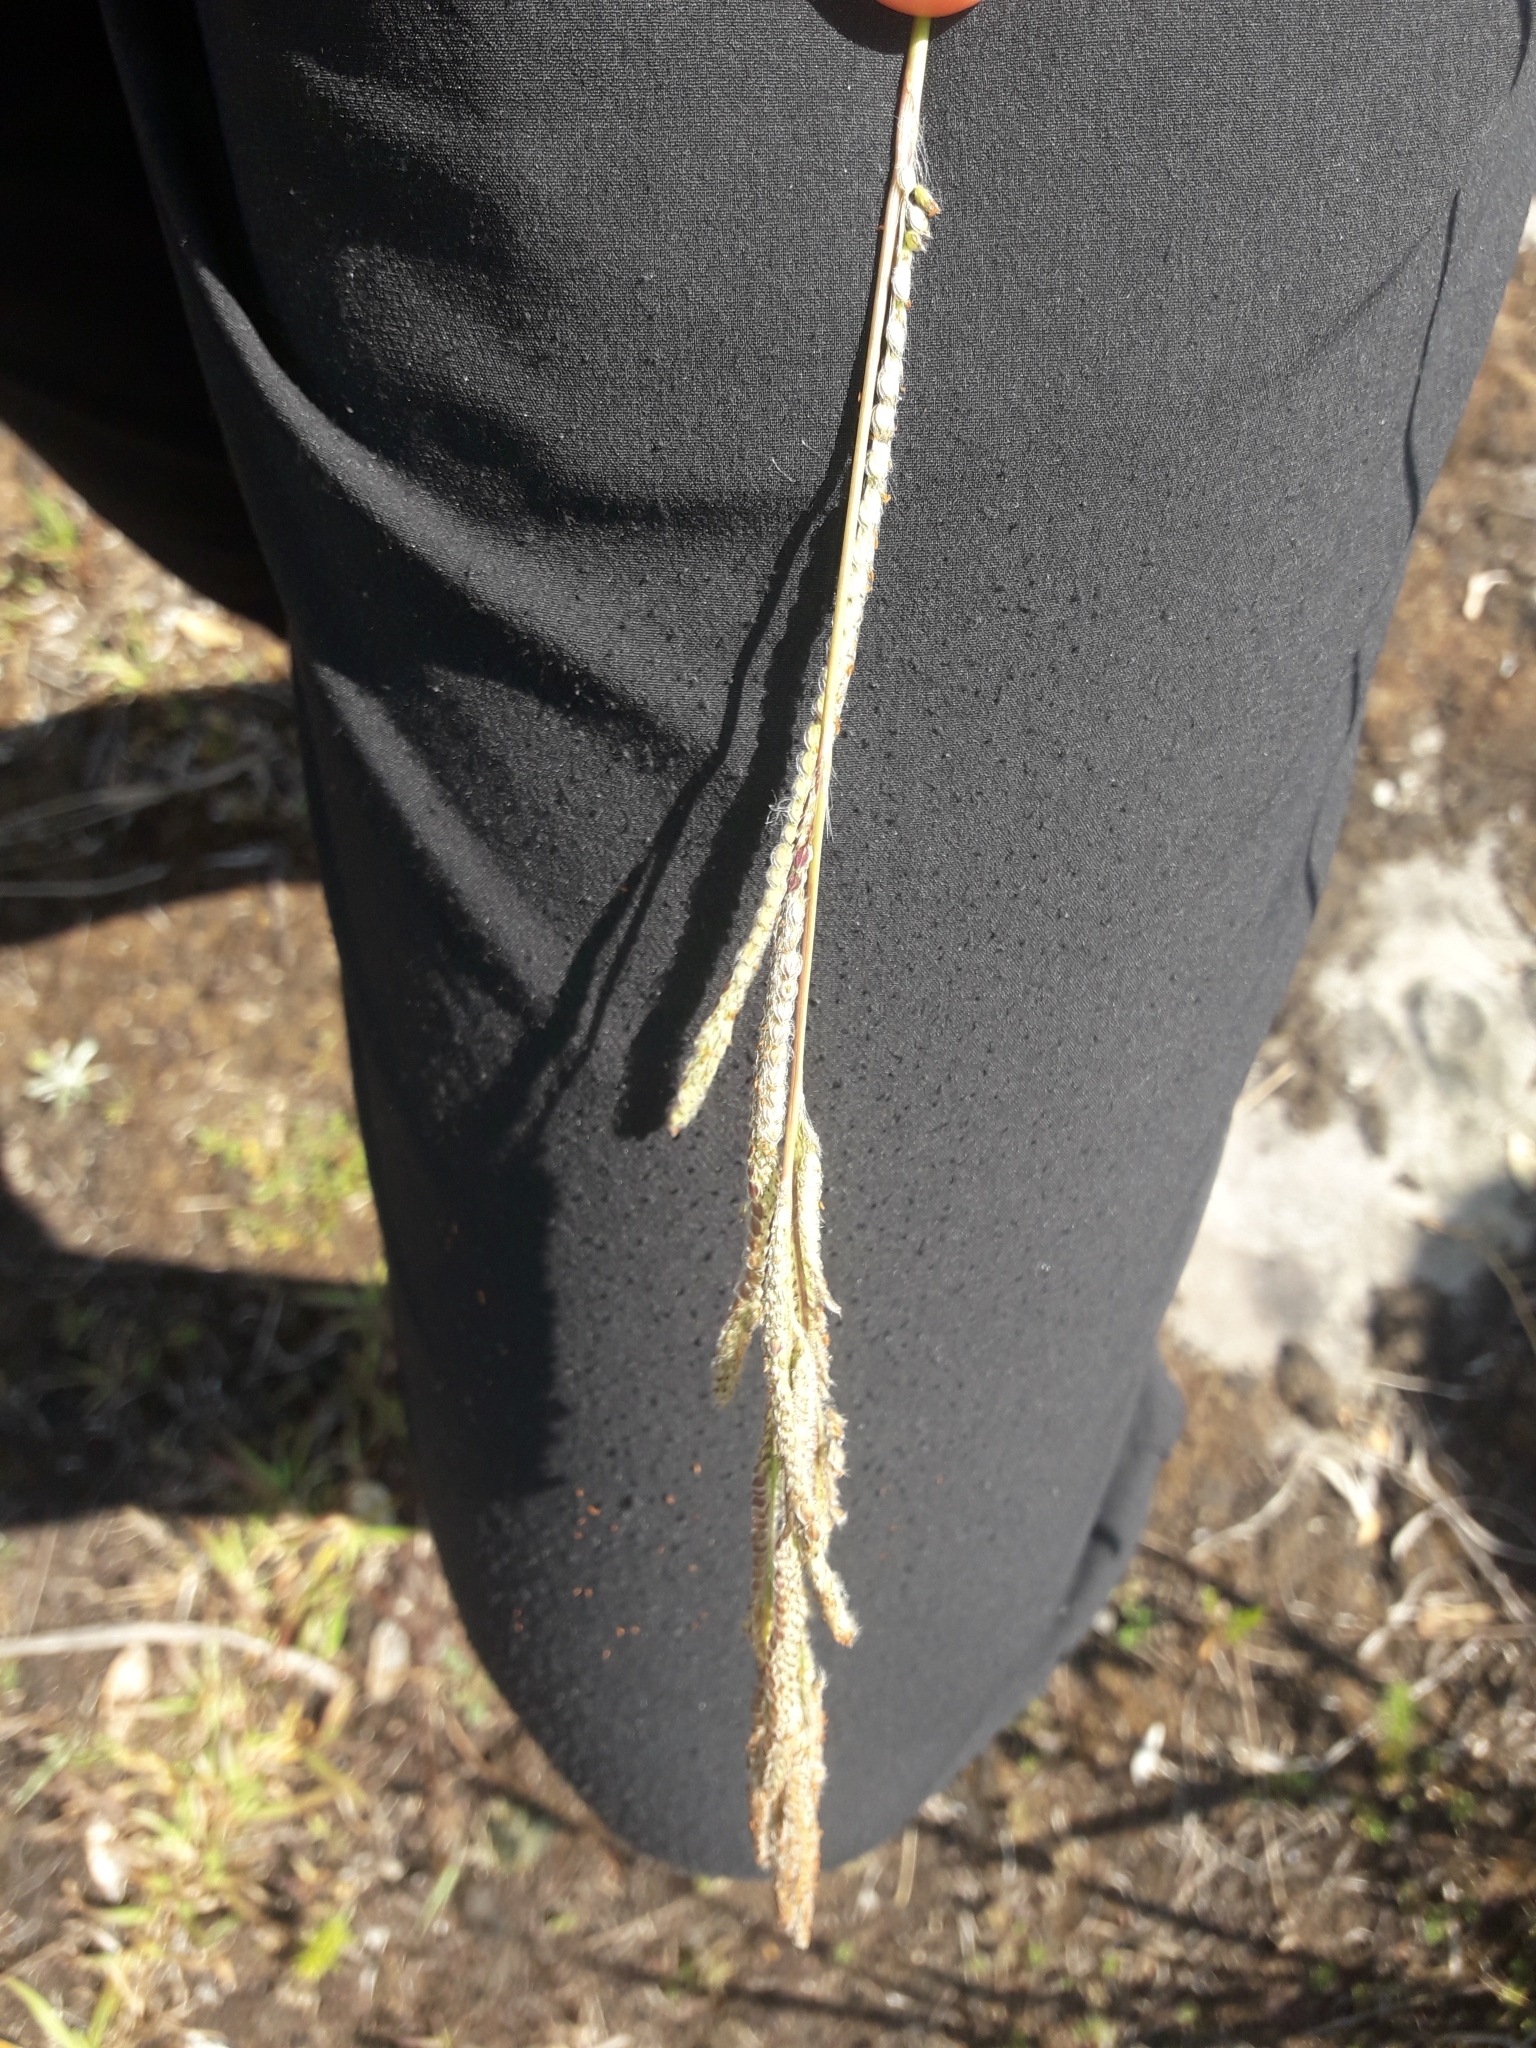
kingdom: Plantae
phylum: Tracheophyta
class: Liliopsida
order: Poales
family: Poaceae
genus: Paspalum
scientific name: Paspalum urvillei
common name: Vasey's grass
